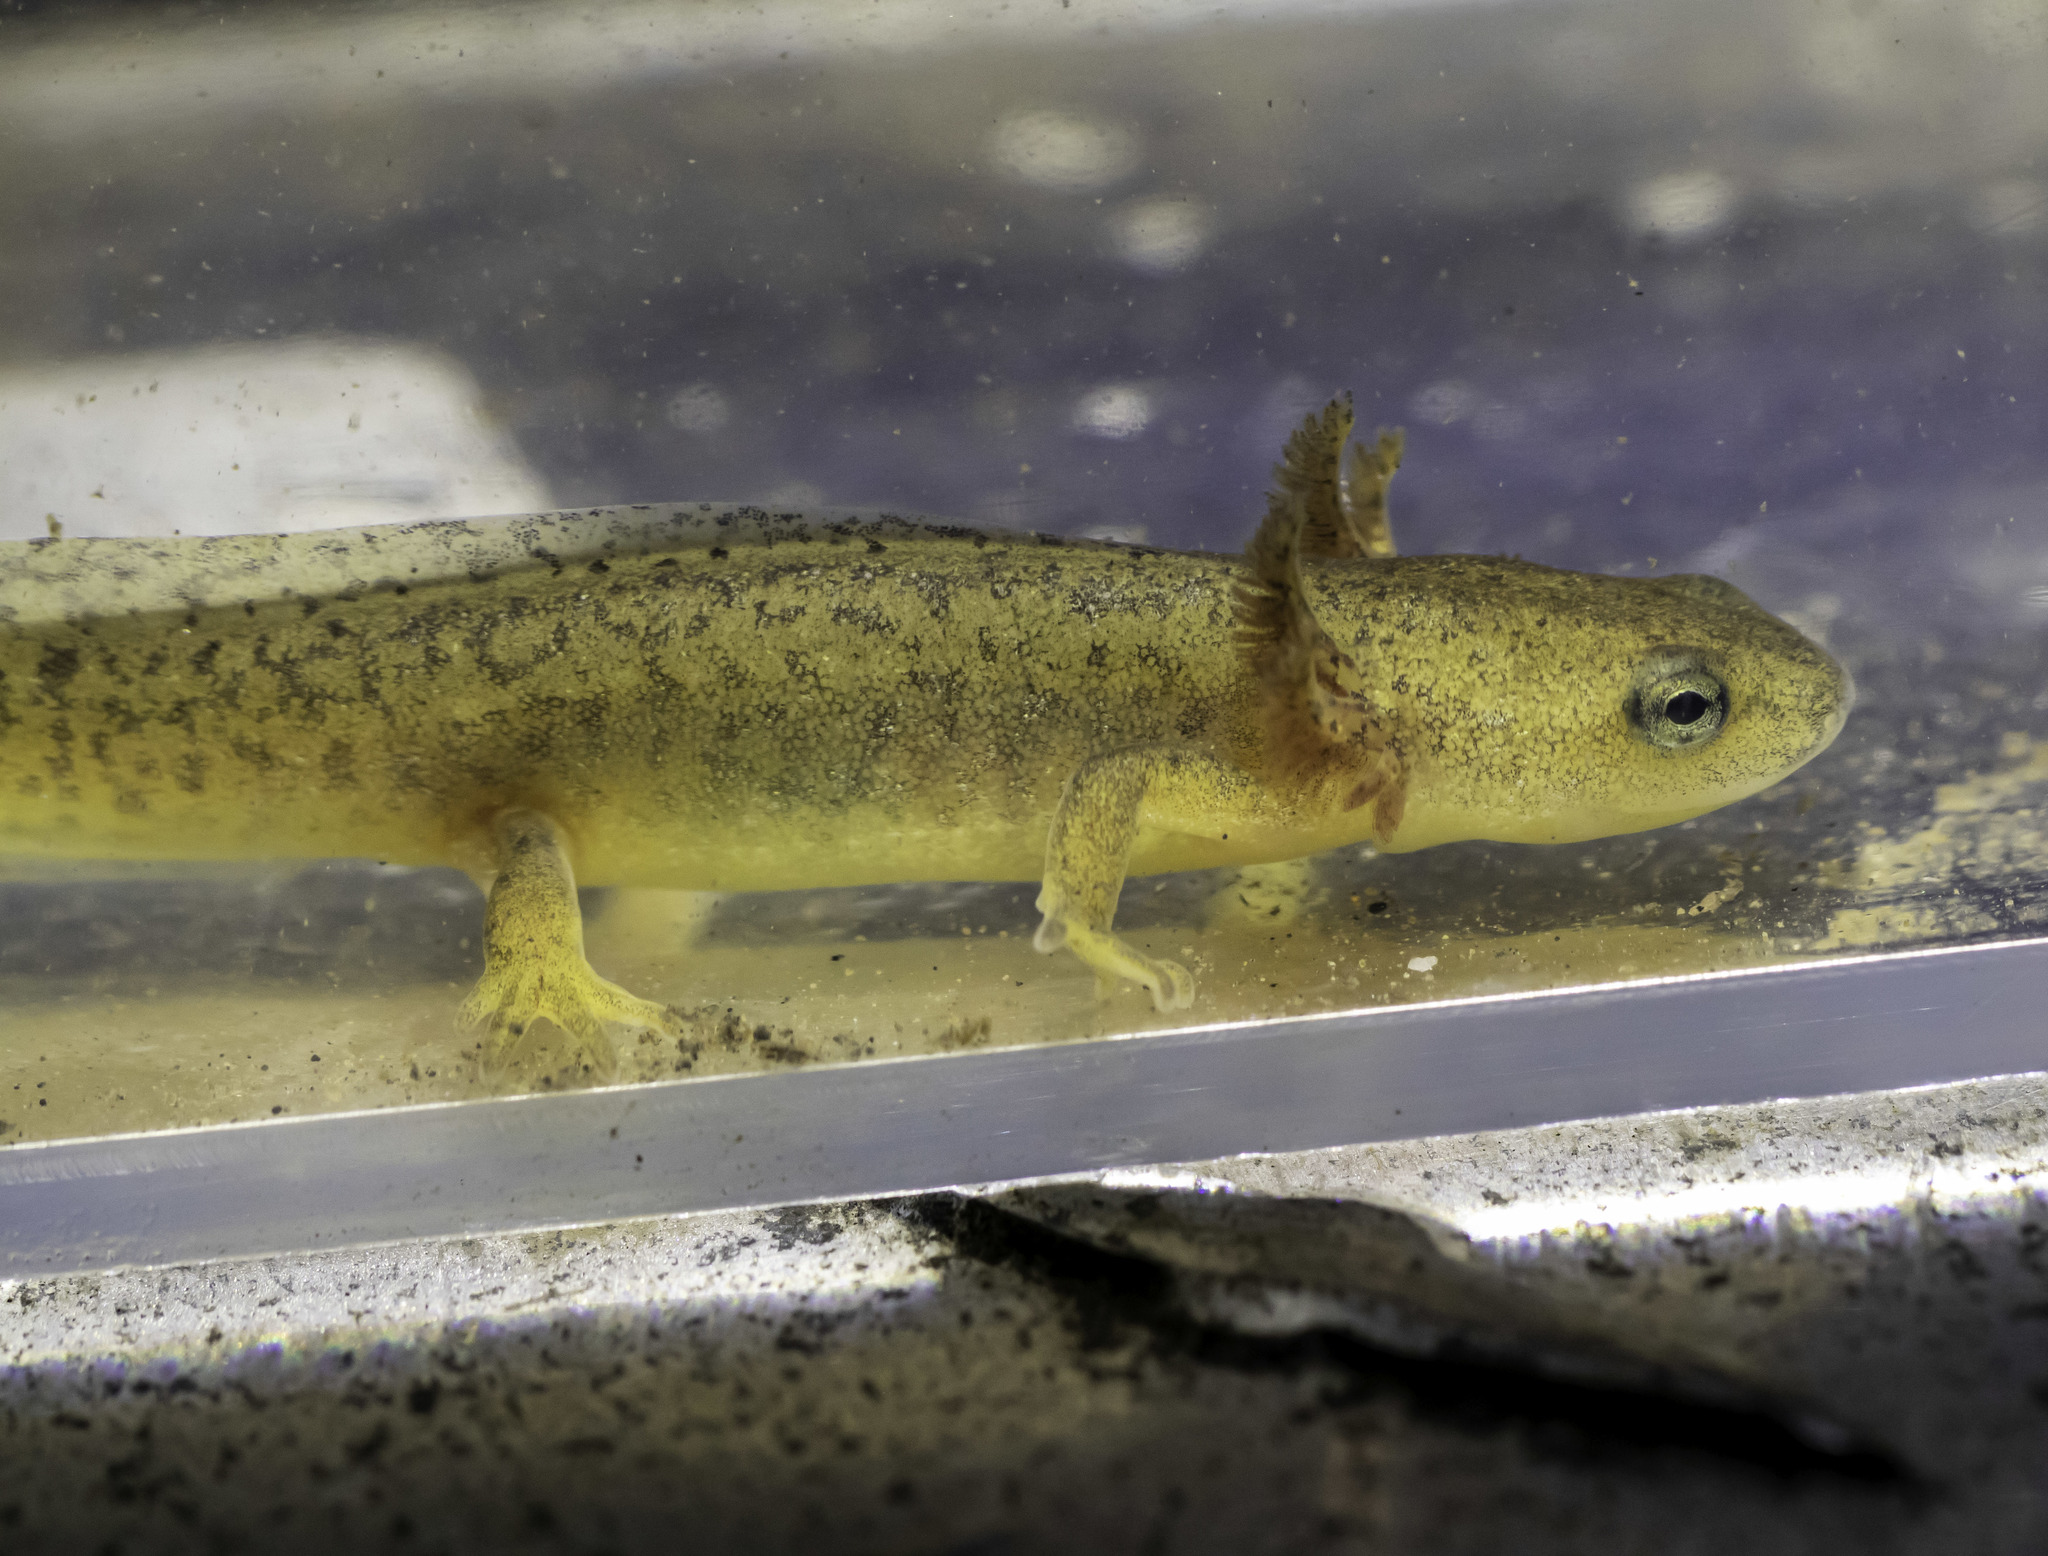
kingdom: Animalia
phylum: Chordata
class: Amphibia
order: Caudata
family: Salamandridae
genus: Taricha
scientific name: Taricha torosa
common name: California newt
